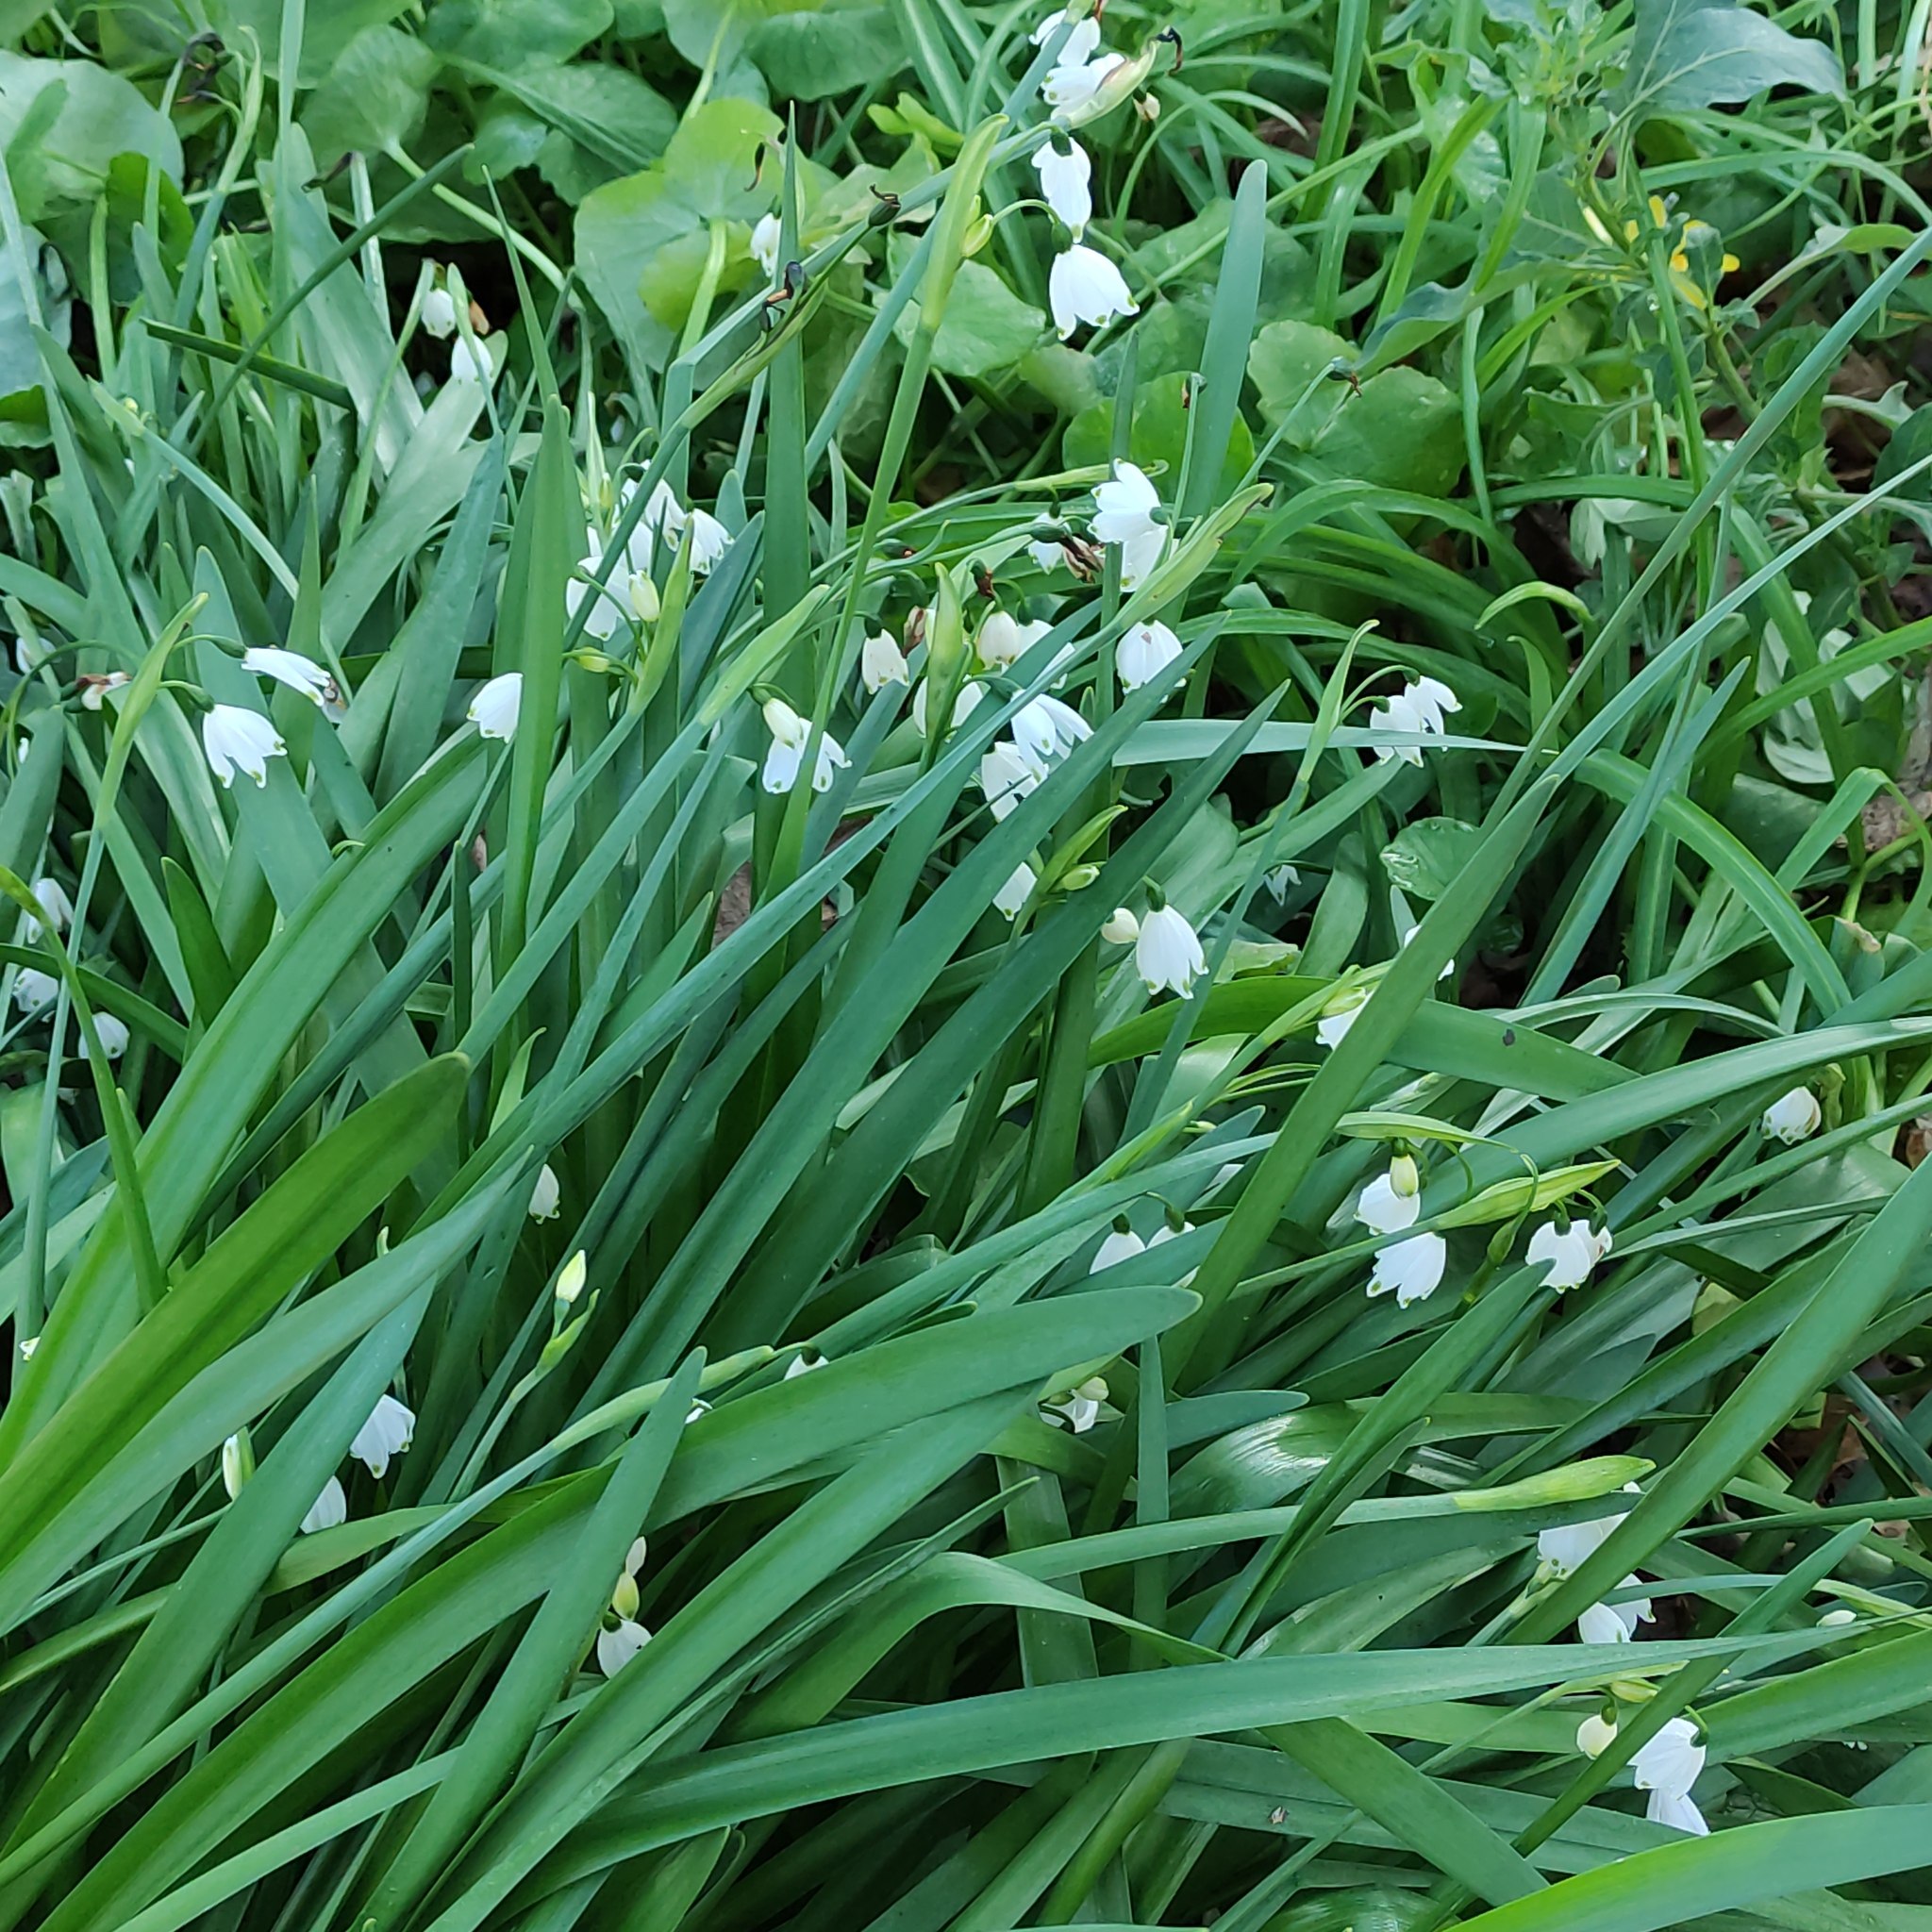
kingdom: Plantae
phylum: Tracheophyta
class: Liliopsida
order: Asparagales
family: Amaryllidaceae
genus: Leucojum
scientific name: Leucojum aestivum
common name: Summer snowflake
